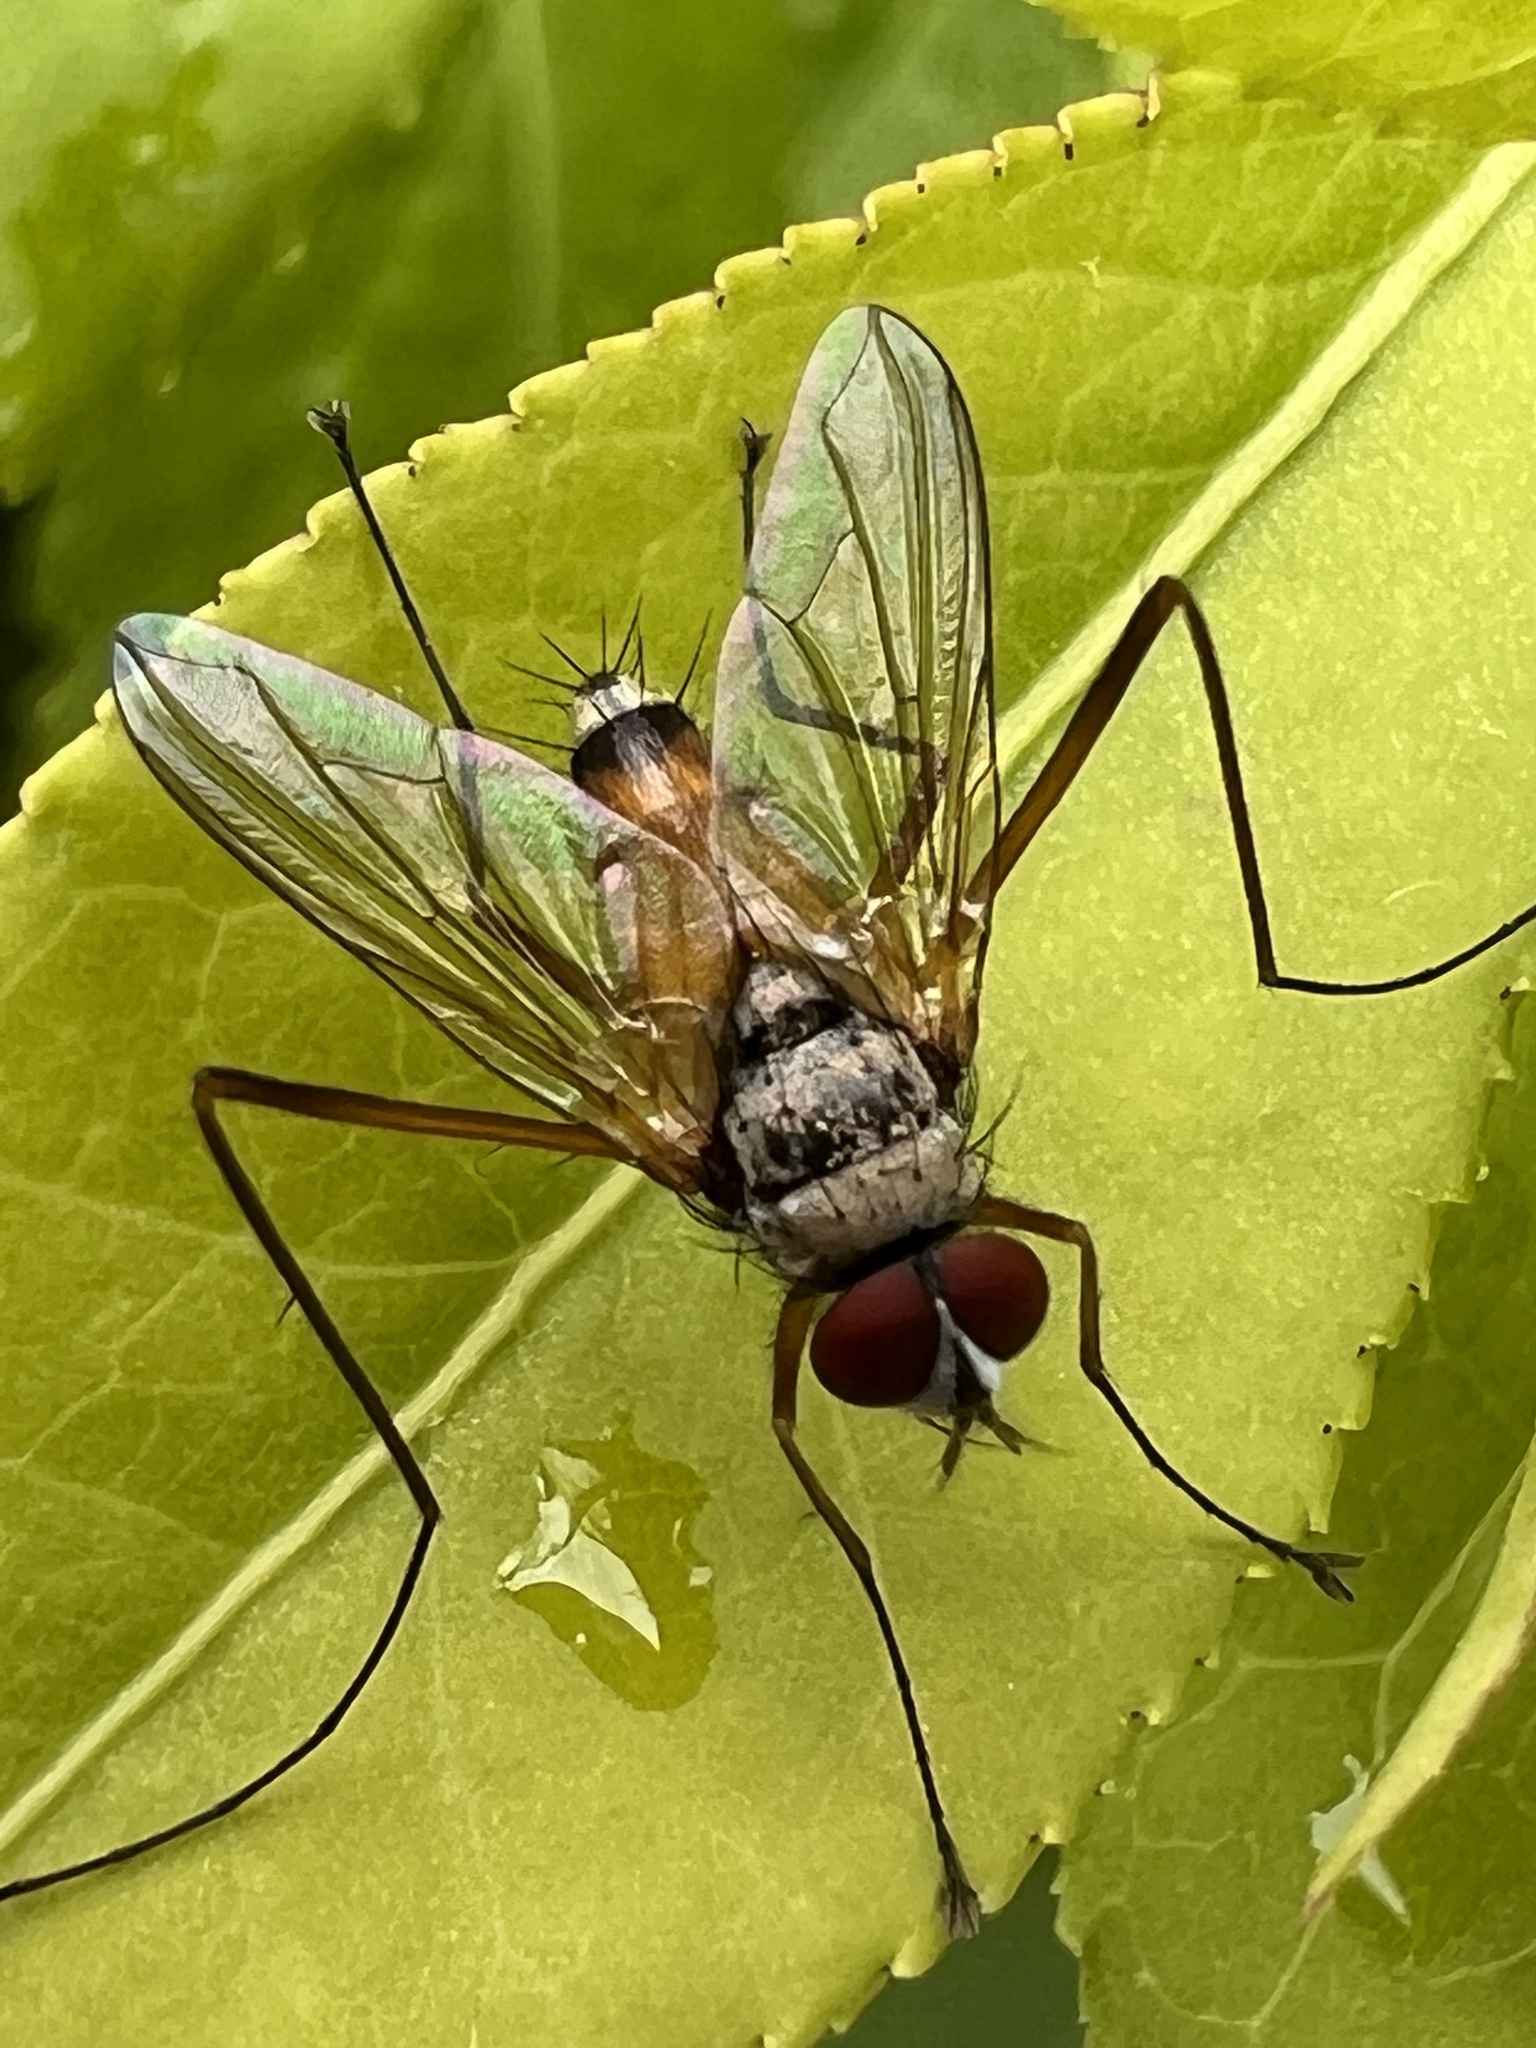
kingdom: Animalia
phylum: Arthropoda
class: Insecta
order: Diptera
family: Tachinidae
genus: Cholomyia
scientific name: Cholomyia inaequipes
